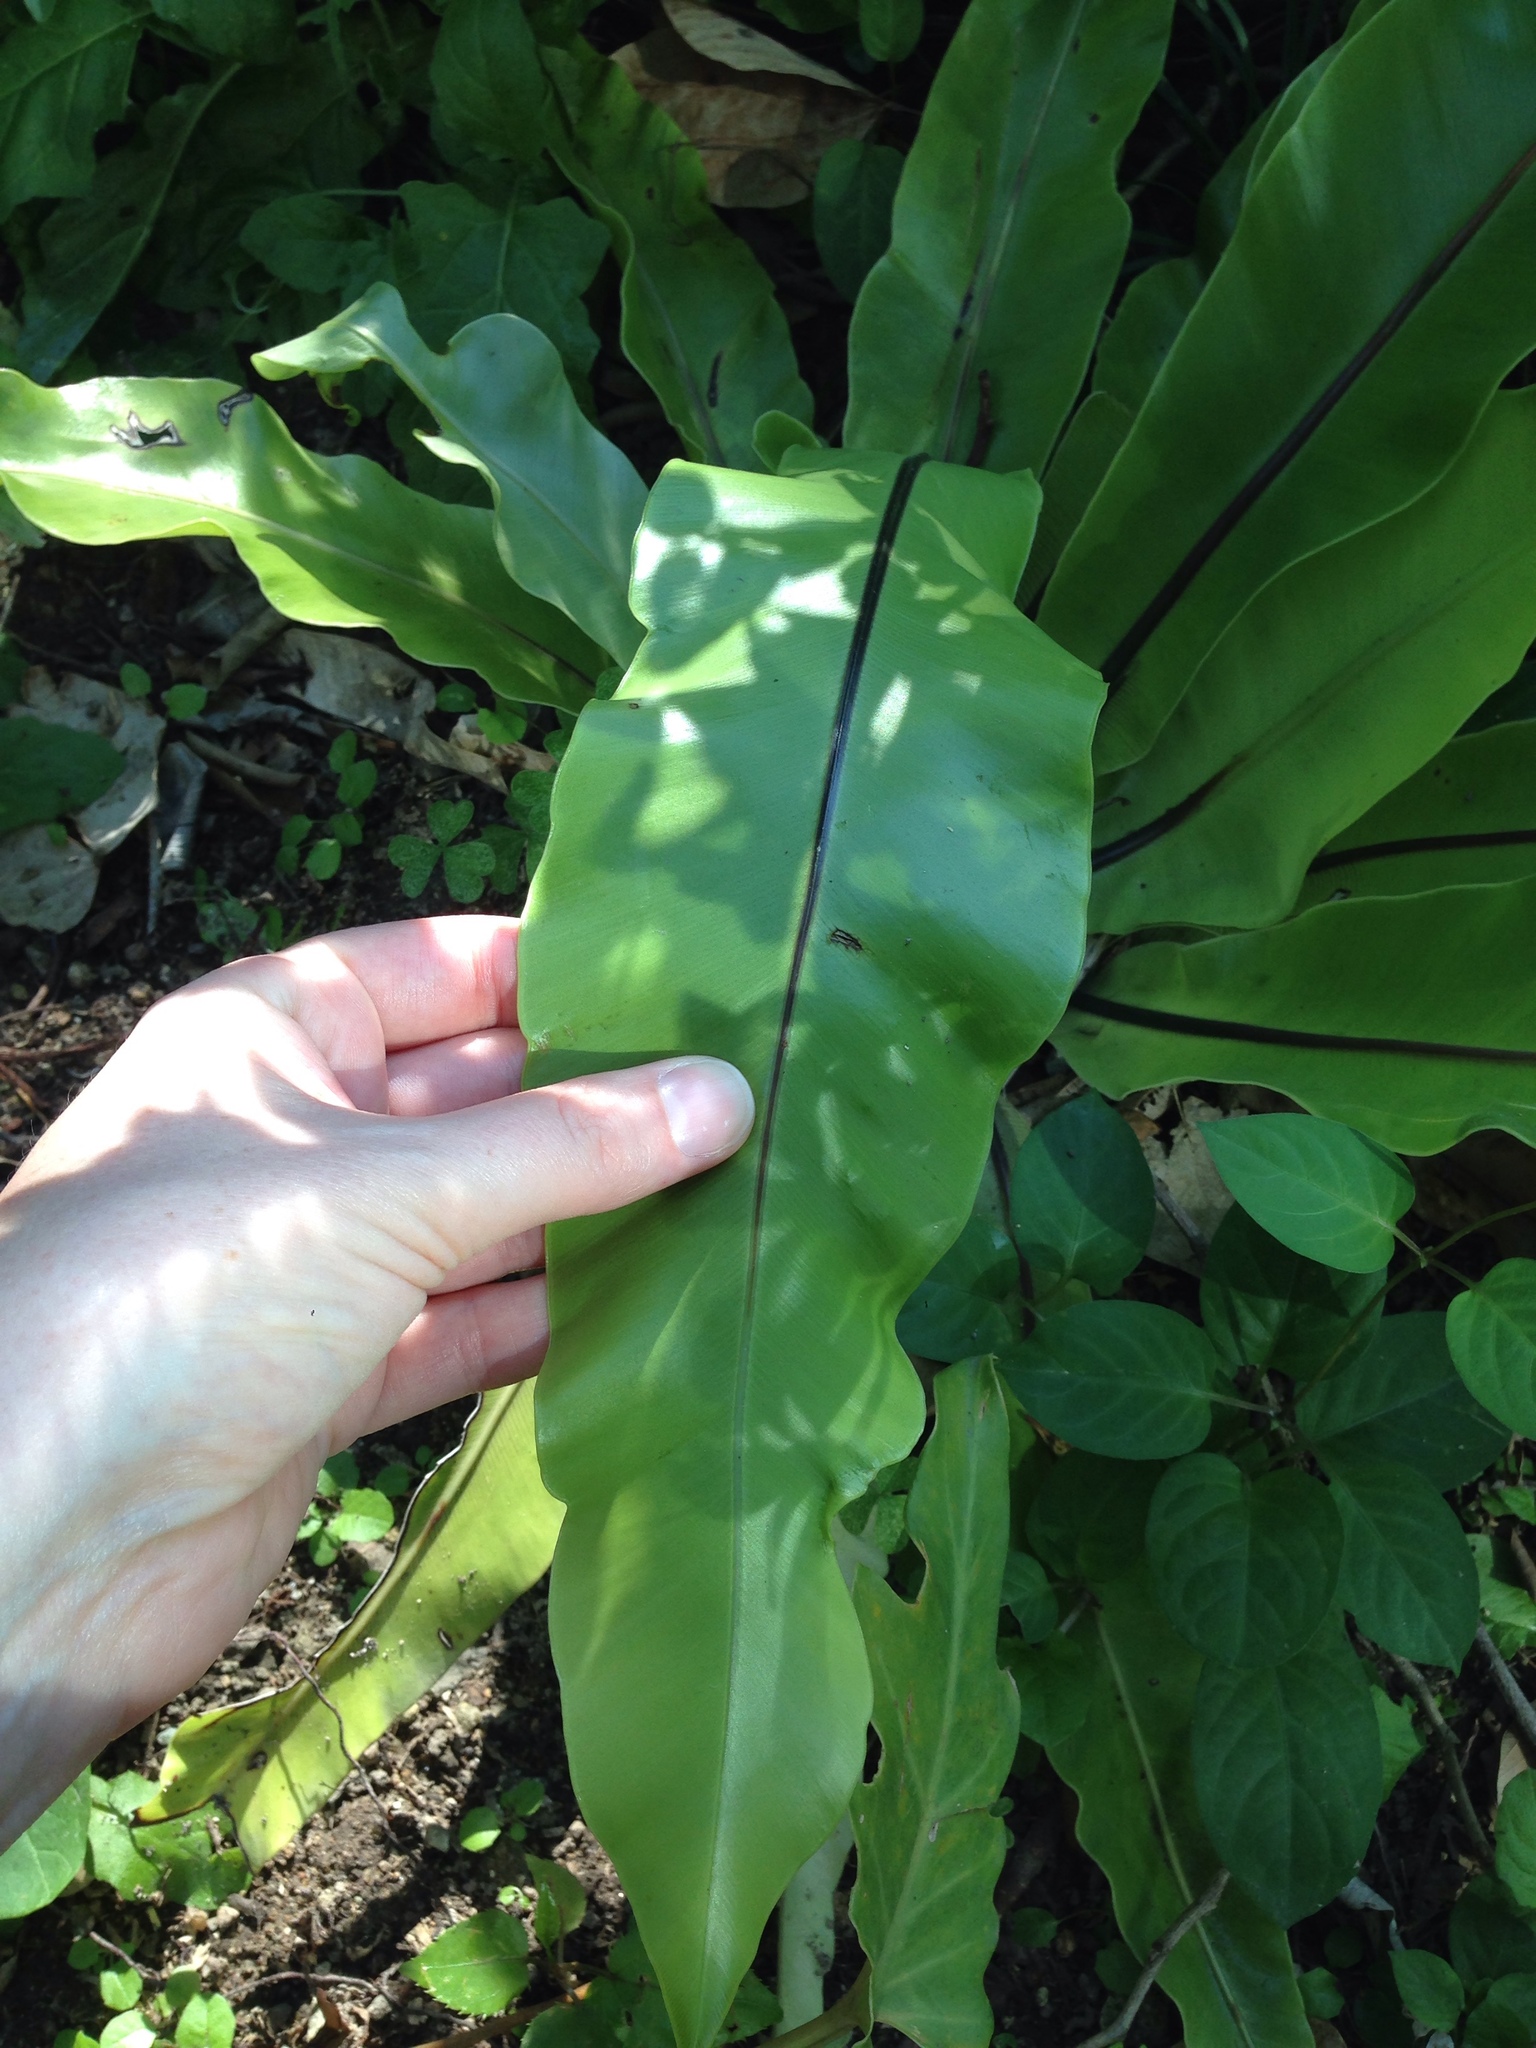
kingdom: Plantae
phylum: Tracheophyta
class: Polypodiopsida
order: Polypodiales
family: Aspleniaceae
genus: Asplenium
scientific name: Asplenium nidus
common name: Bird's-nest fern
